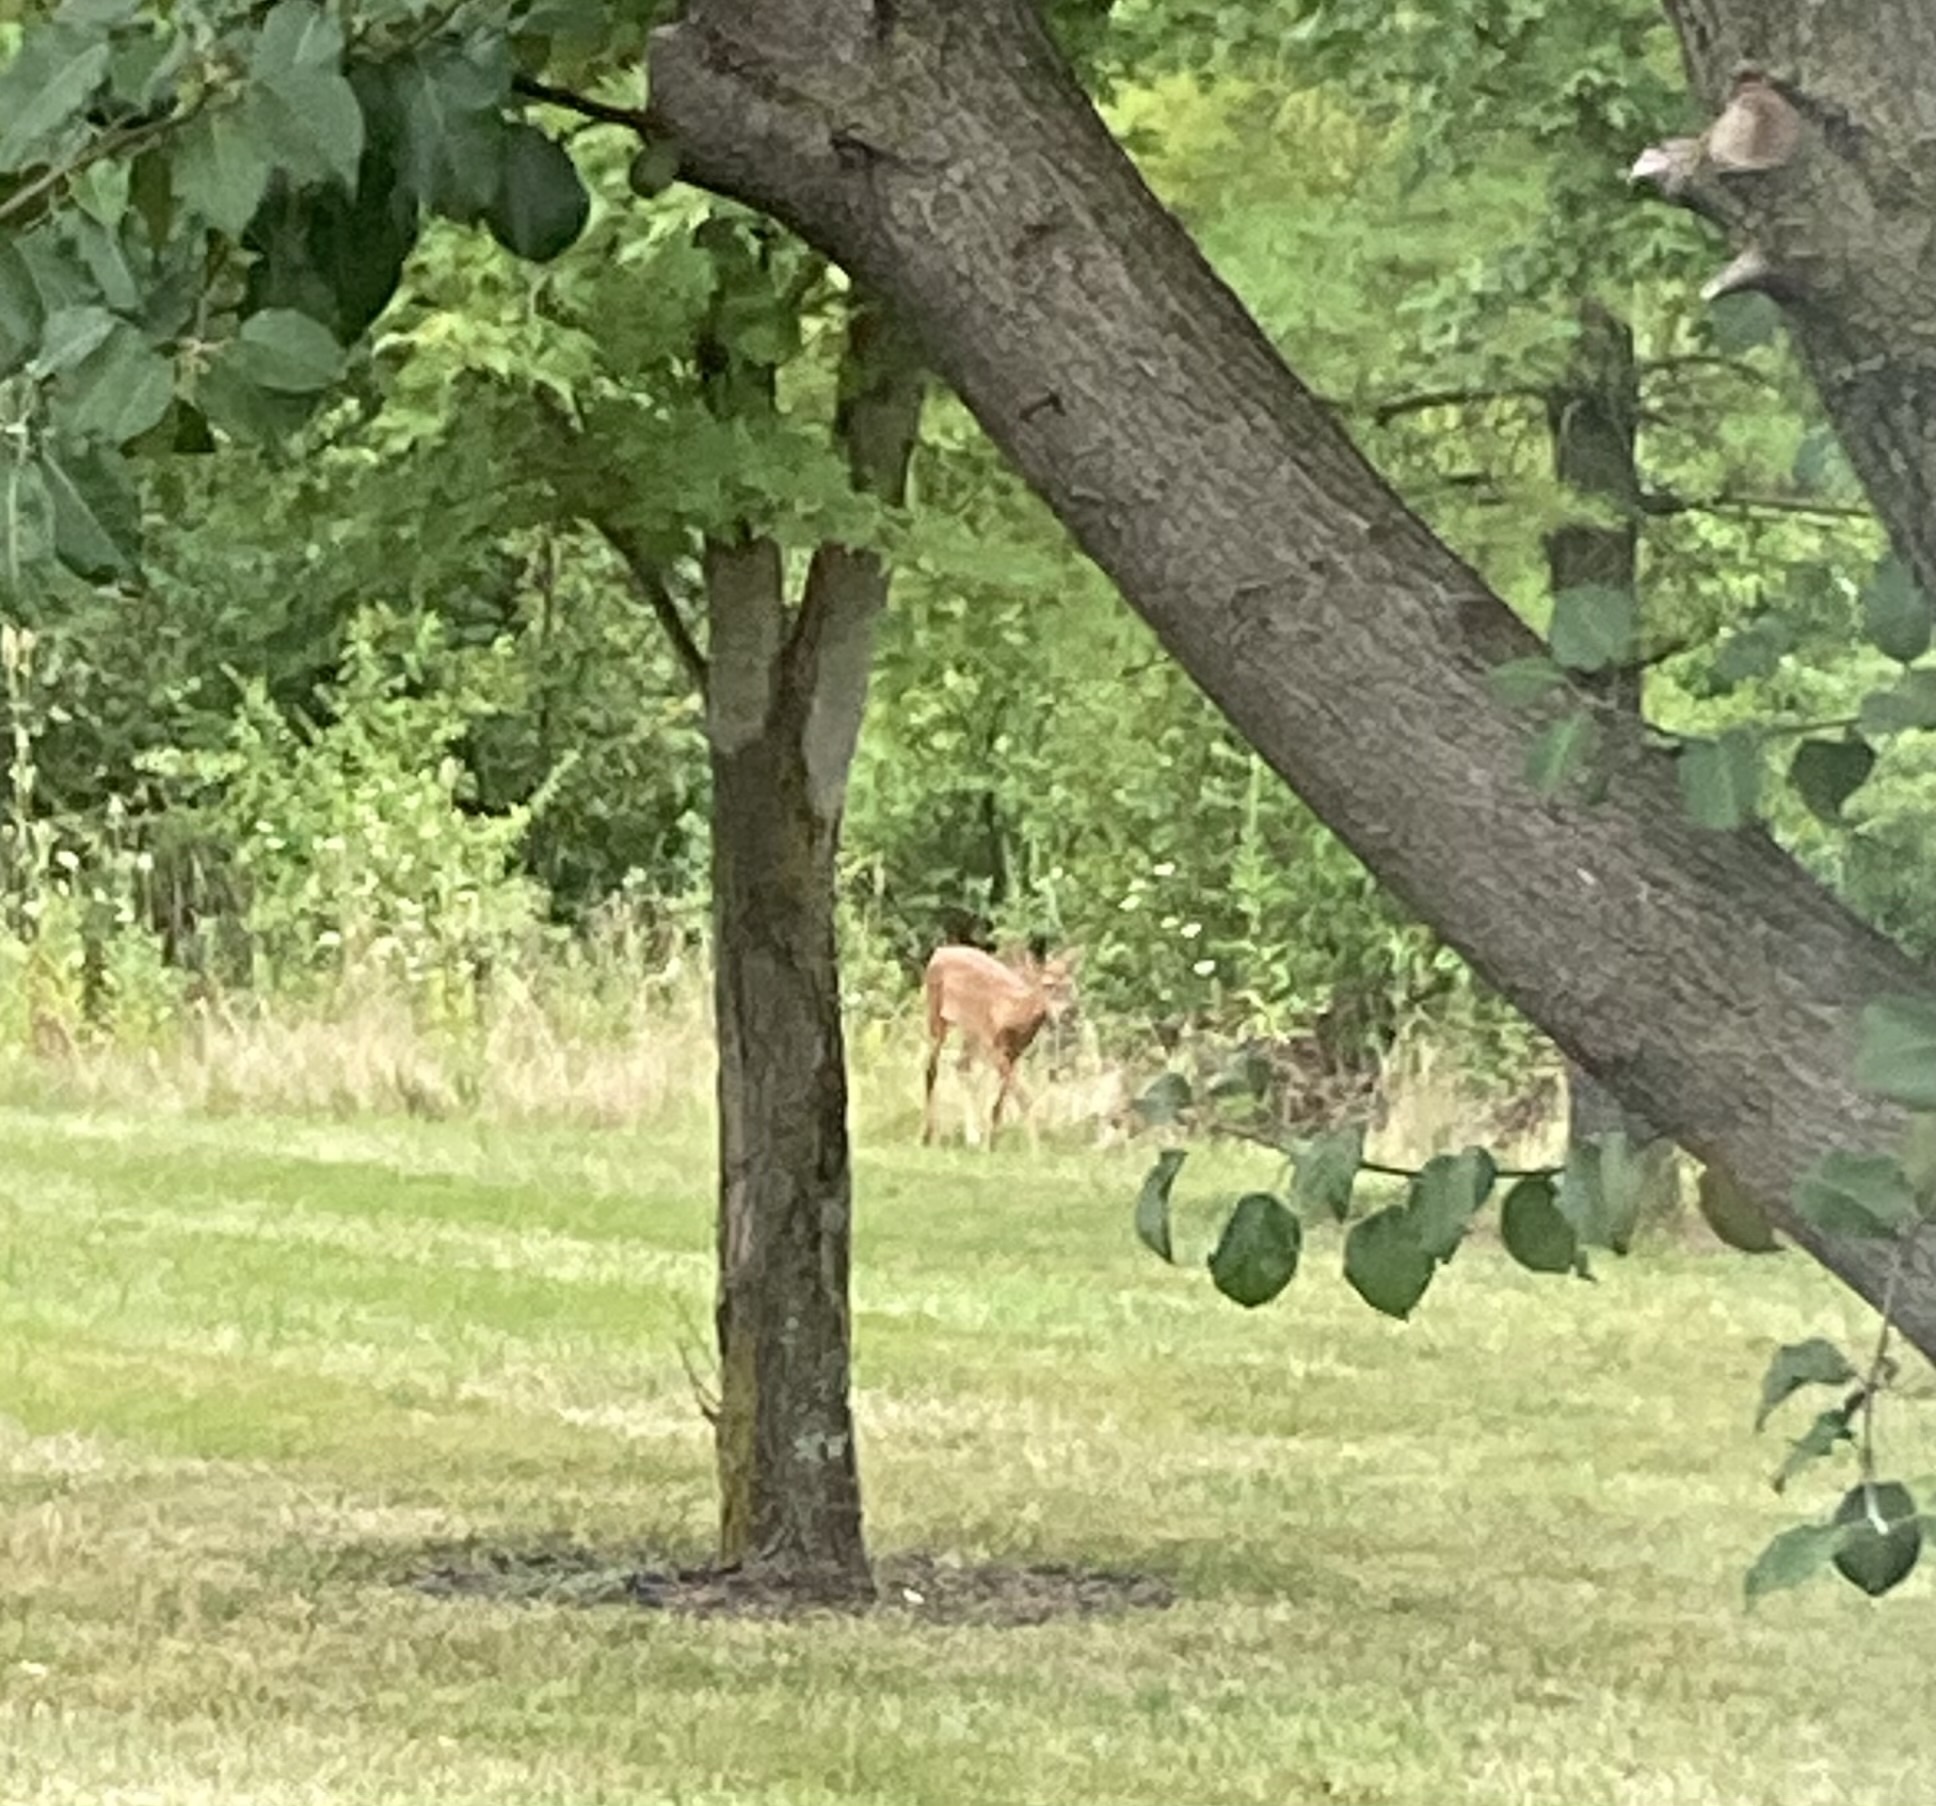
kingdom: Animalia
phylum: Chordata
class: Mammalia
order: Artiodactyla
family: Cervidae
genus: Odocoileus
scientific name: Odocoileus virginianus
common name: White-tailed deer
